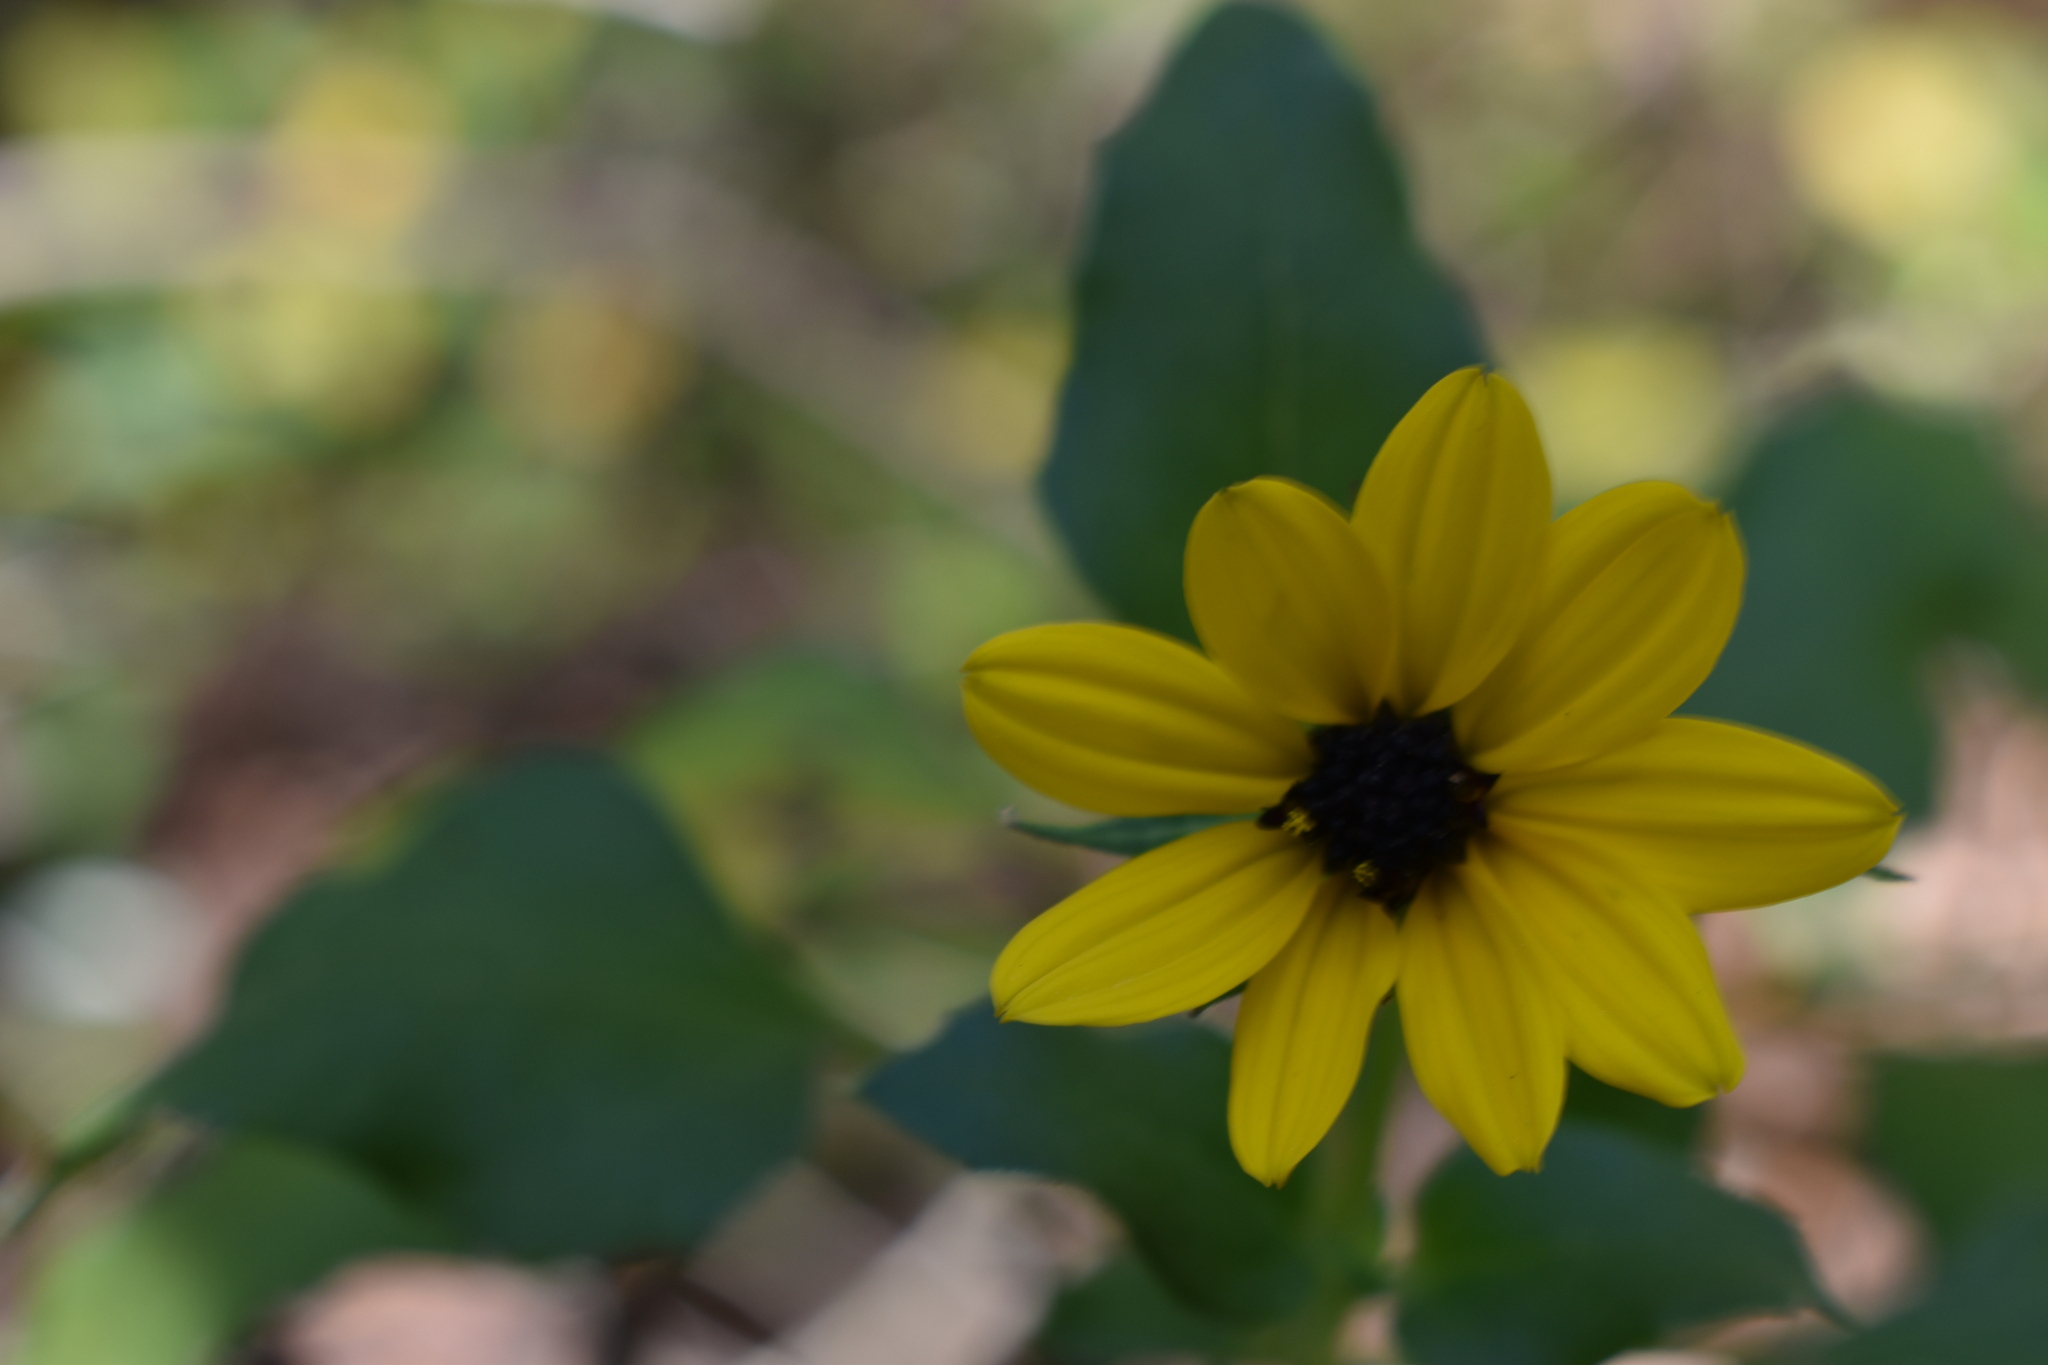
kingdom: Plantae
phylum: Tracheophyta
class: Magnoliopsida
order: Asterales
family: Asteraceae
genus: Helianthus
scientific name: Helianthus debilis
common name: Weak sunflower
